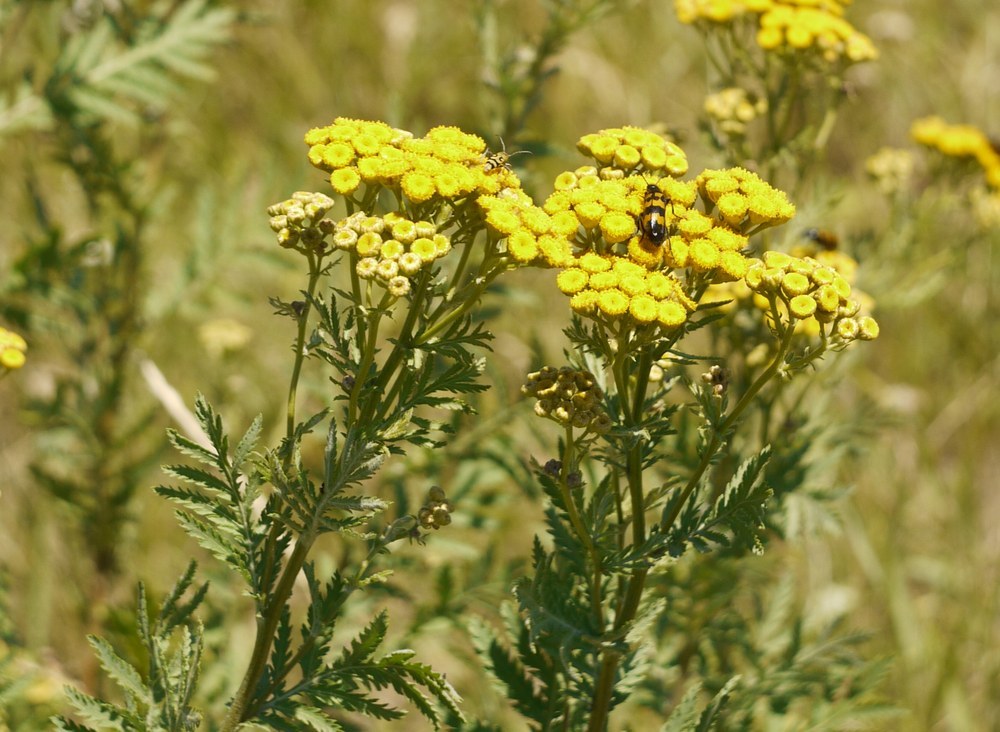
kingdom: Plantae
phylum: Tracheophyta
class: Magnoliopsida
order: Asterales
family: Asteraceae
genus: Tanacetum
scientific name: Tanacetum vulgare
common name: Common tansy
